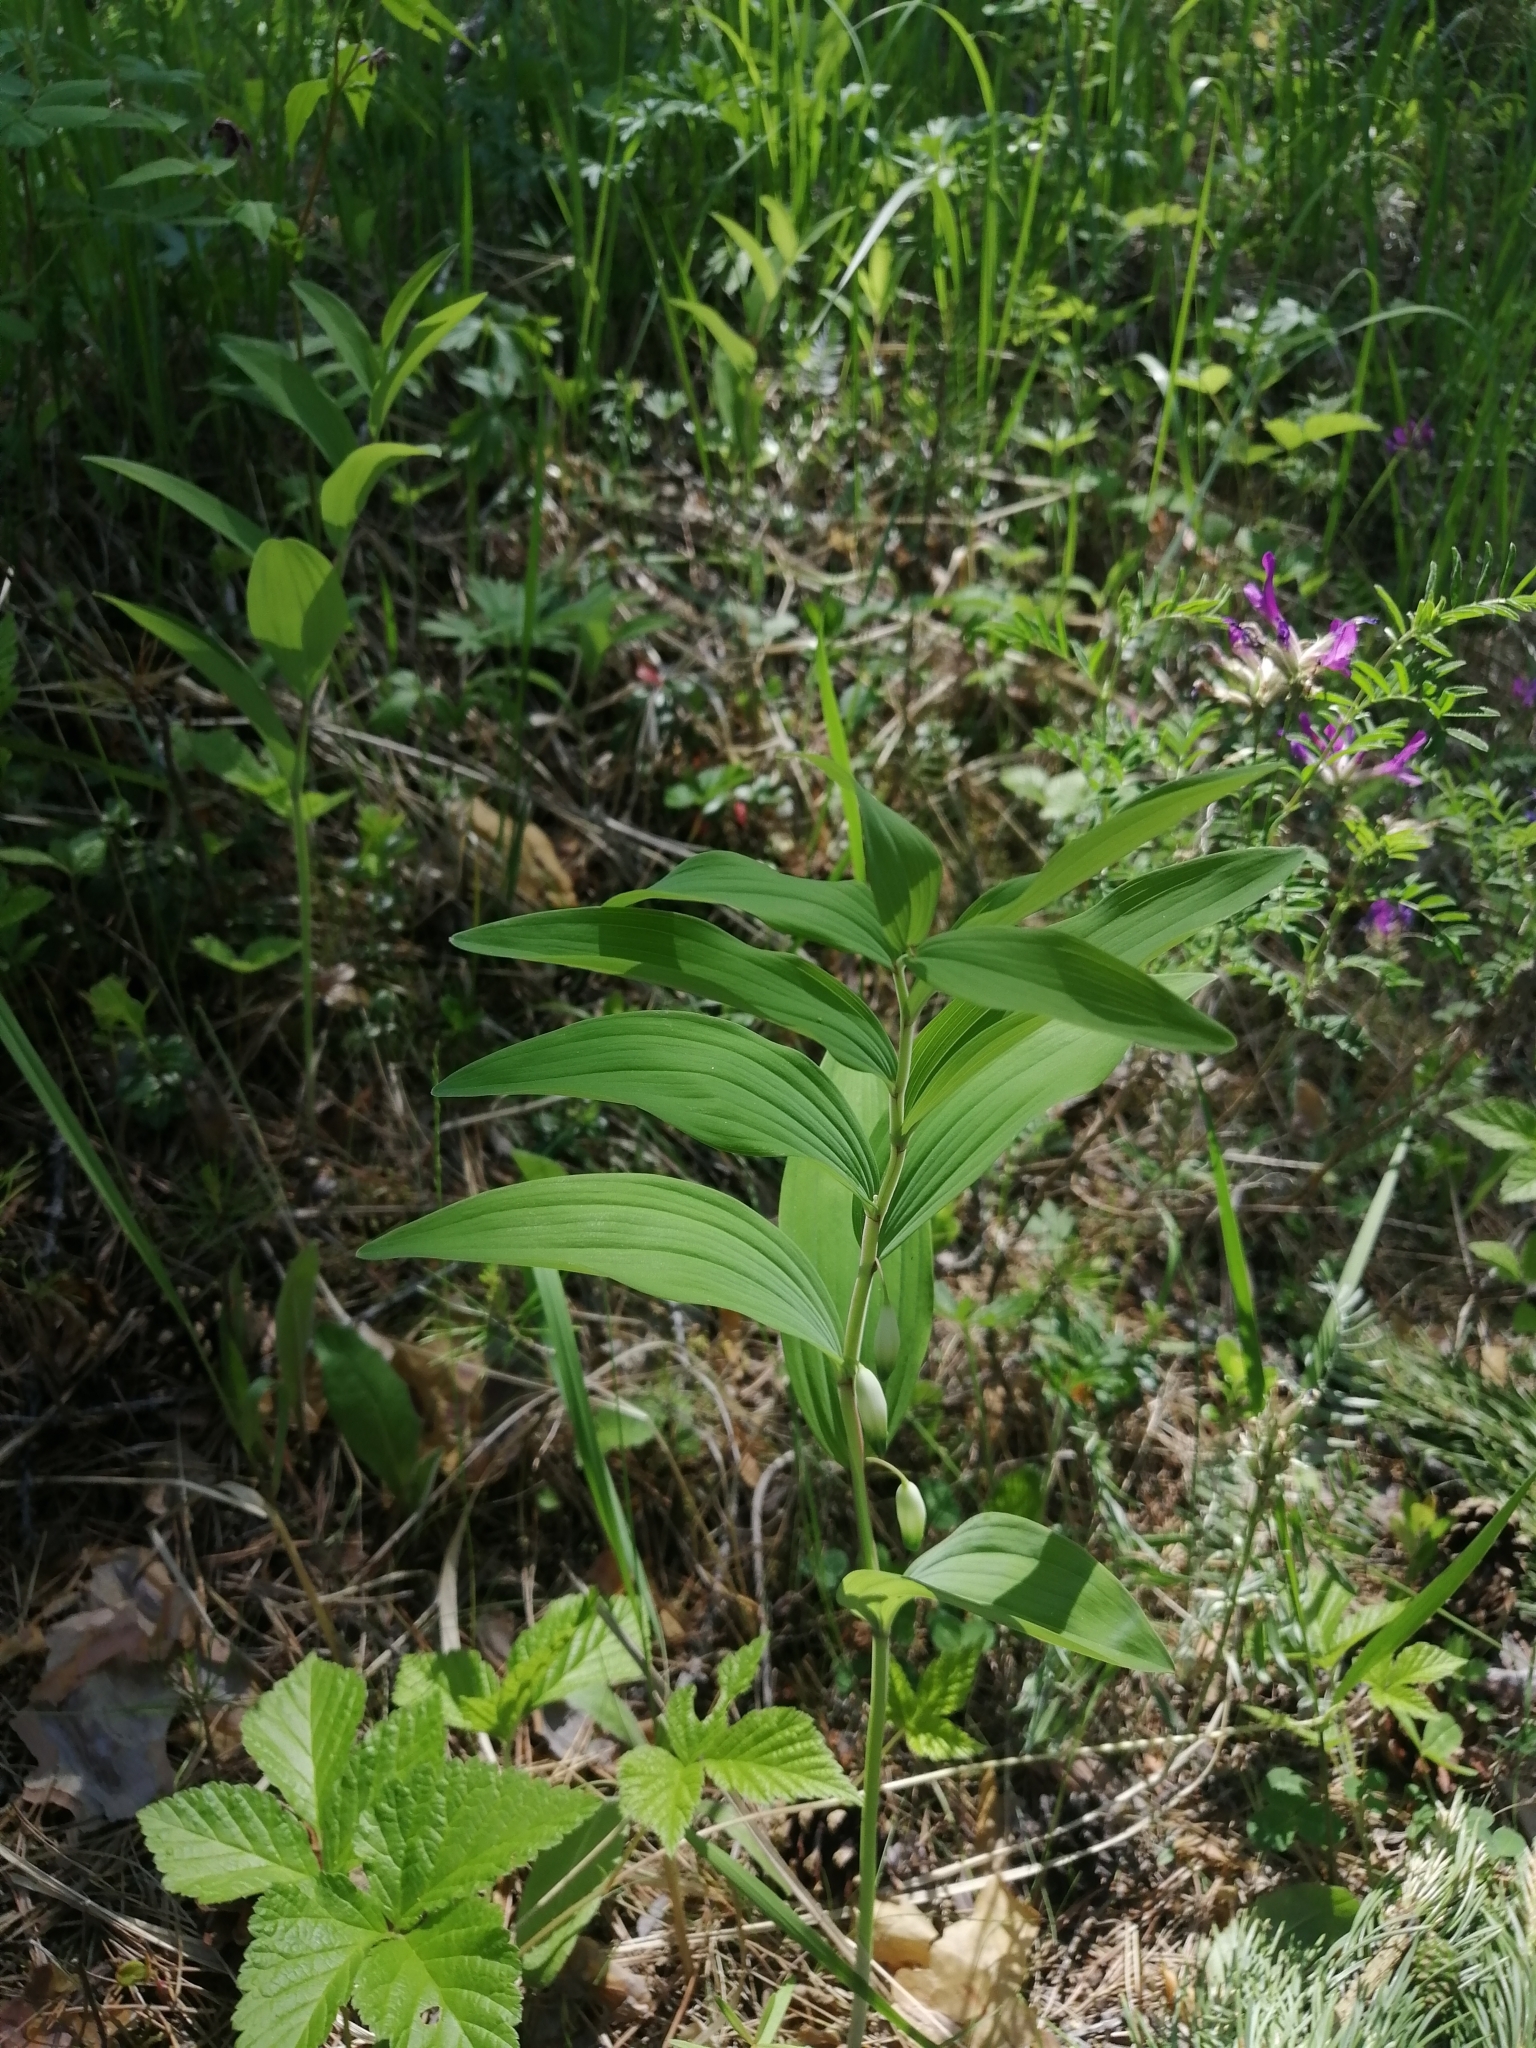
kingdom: Plantae
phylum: Tracheophyta
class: Liliopsida
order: Asparagales
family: Asparagaceae
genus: Polygonatum
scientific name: Polygonatum odoratum
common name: Angular solomon's-seal
